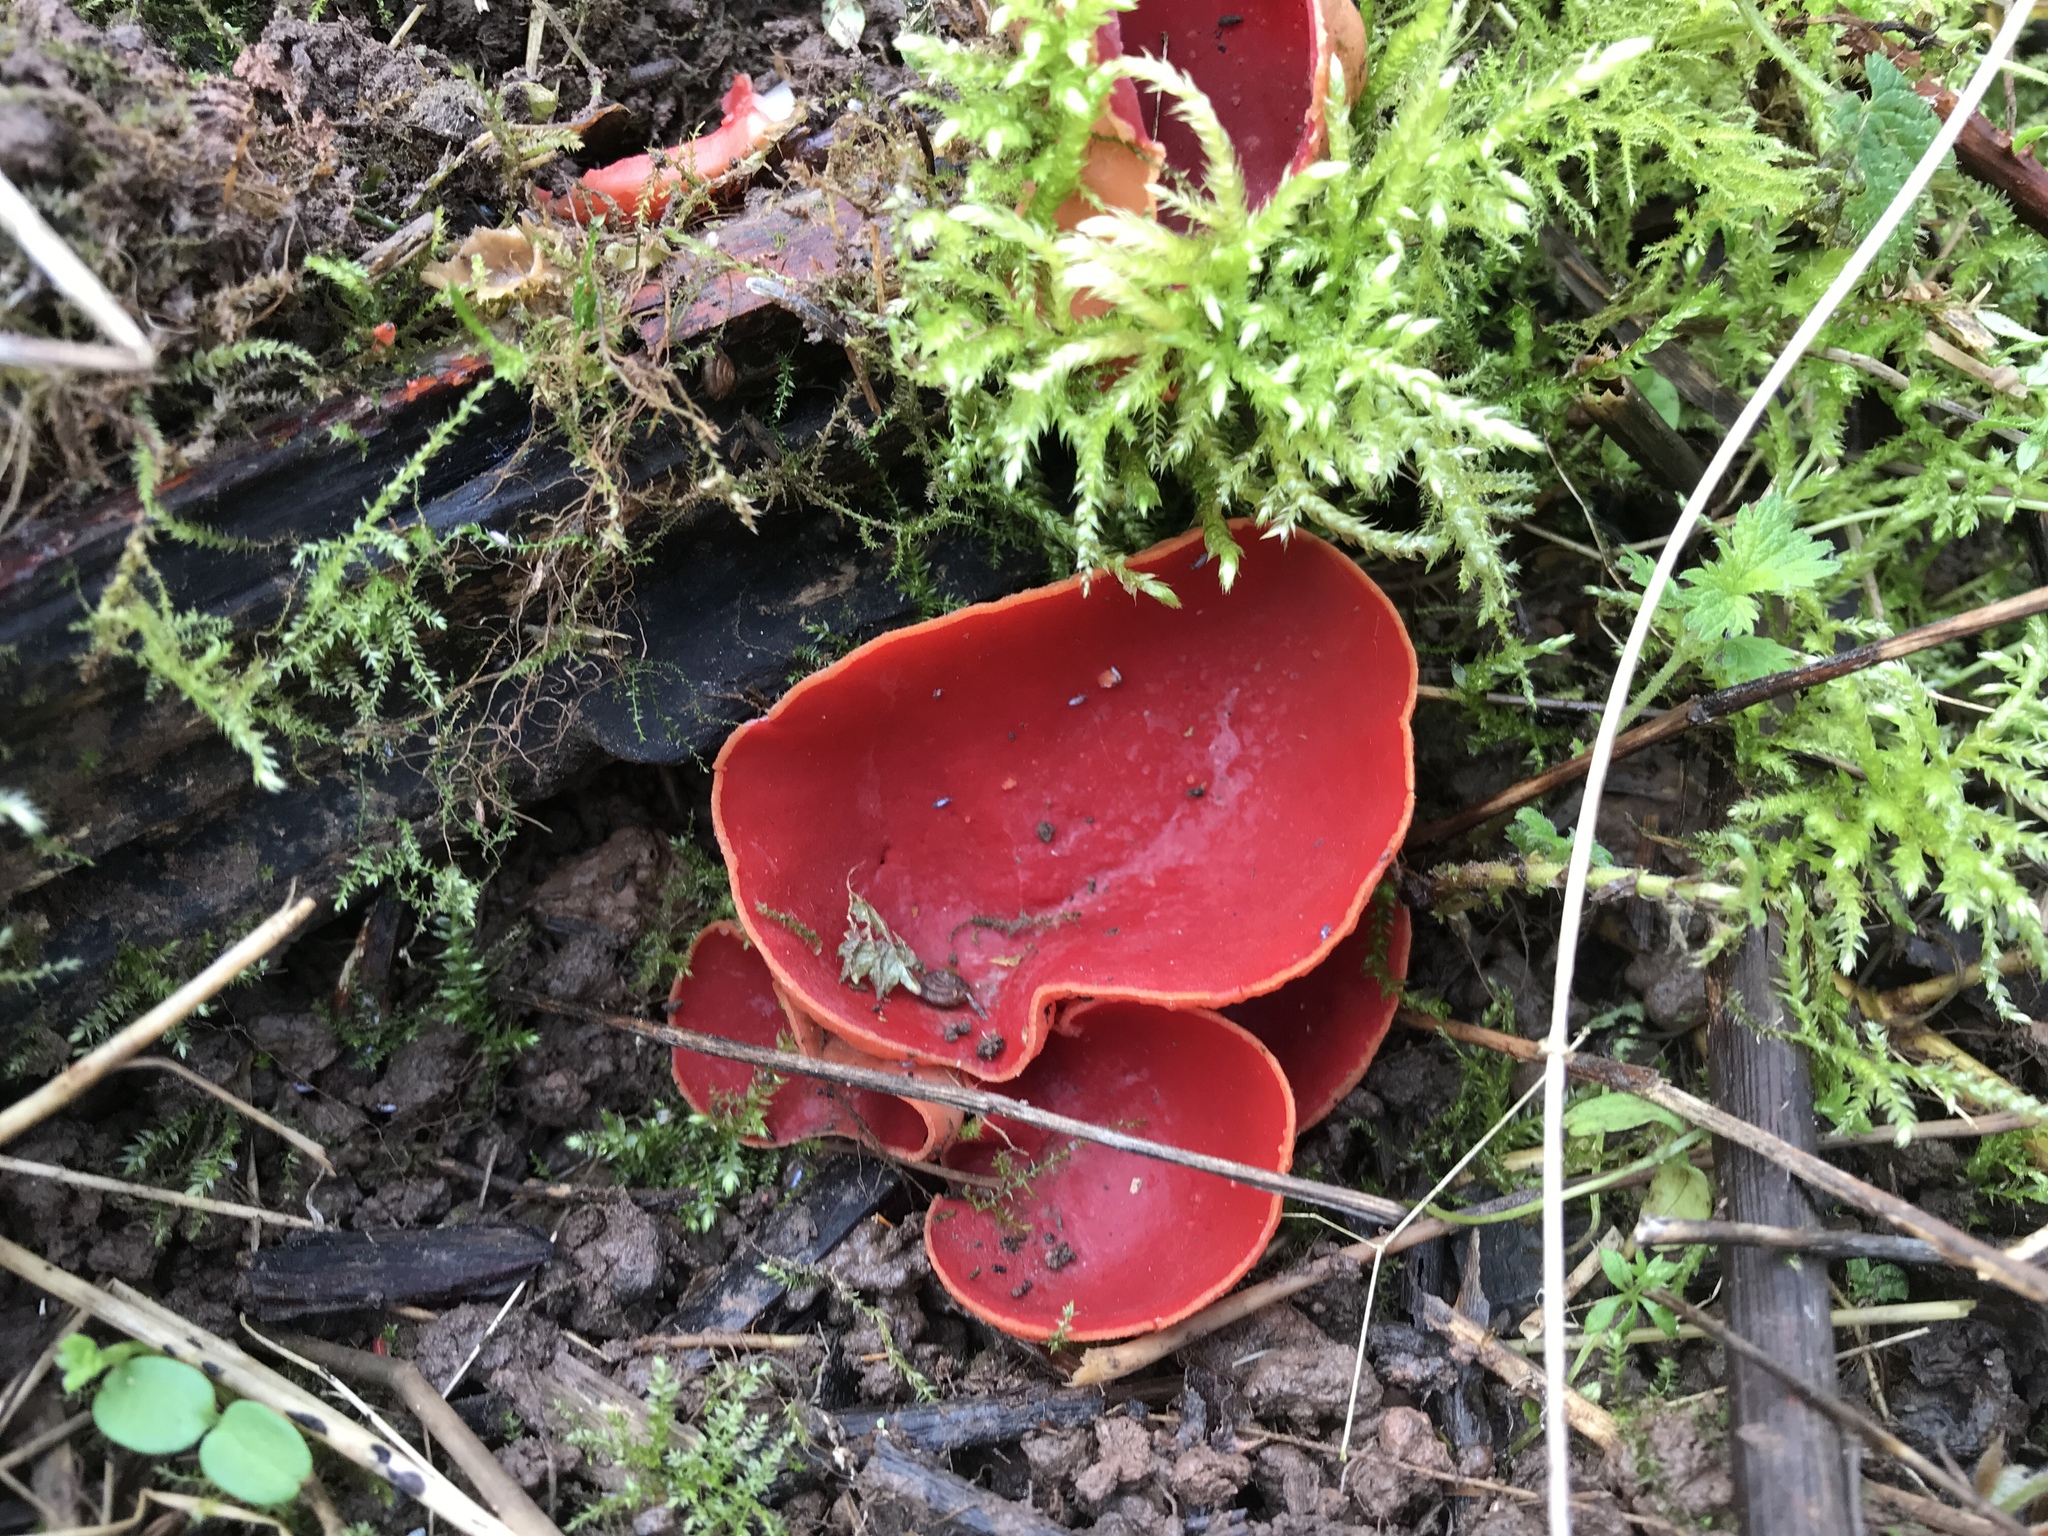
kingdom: Fungi
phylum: Ascomycota
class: Pezizomycetes
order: Pezizales
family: Sarcoscyphaceae
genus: Sarcoscypha
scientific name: Sarcoscypha
